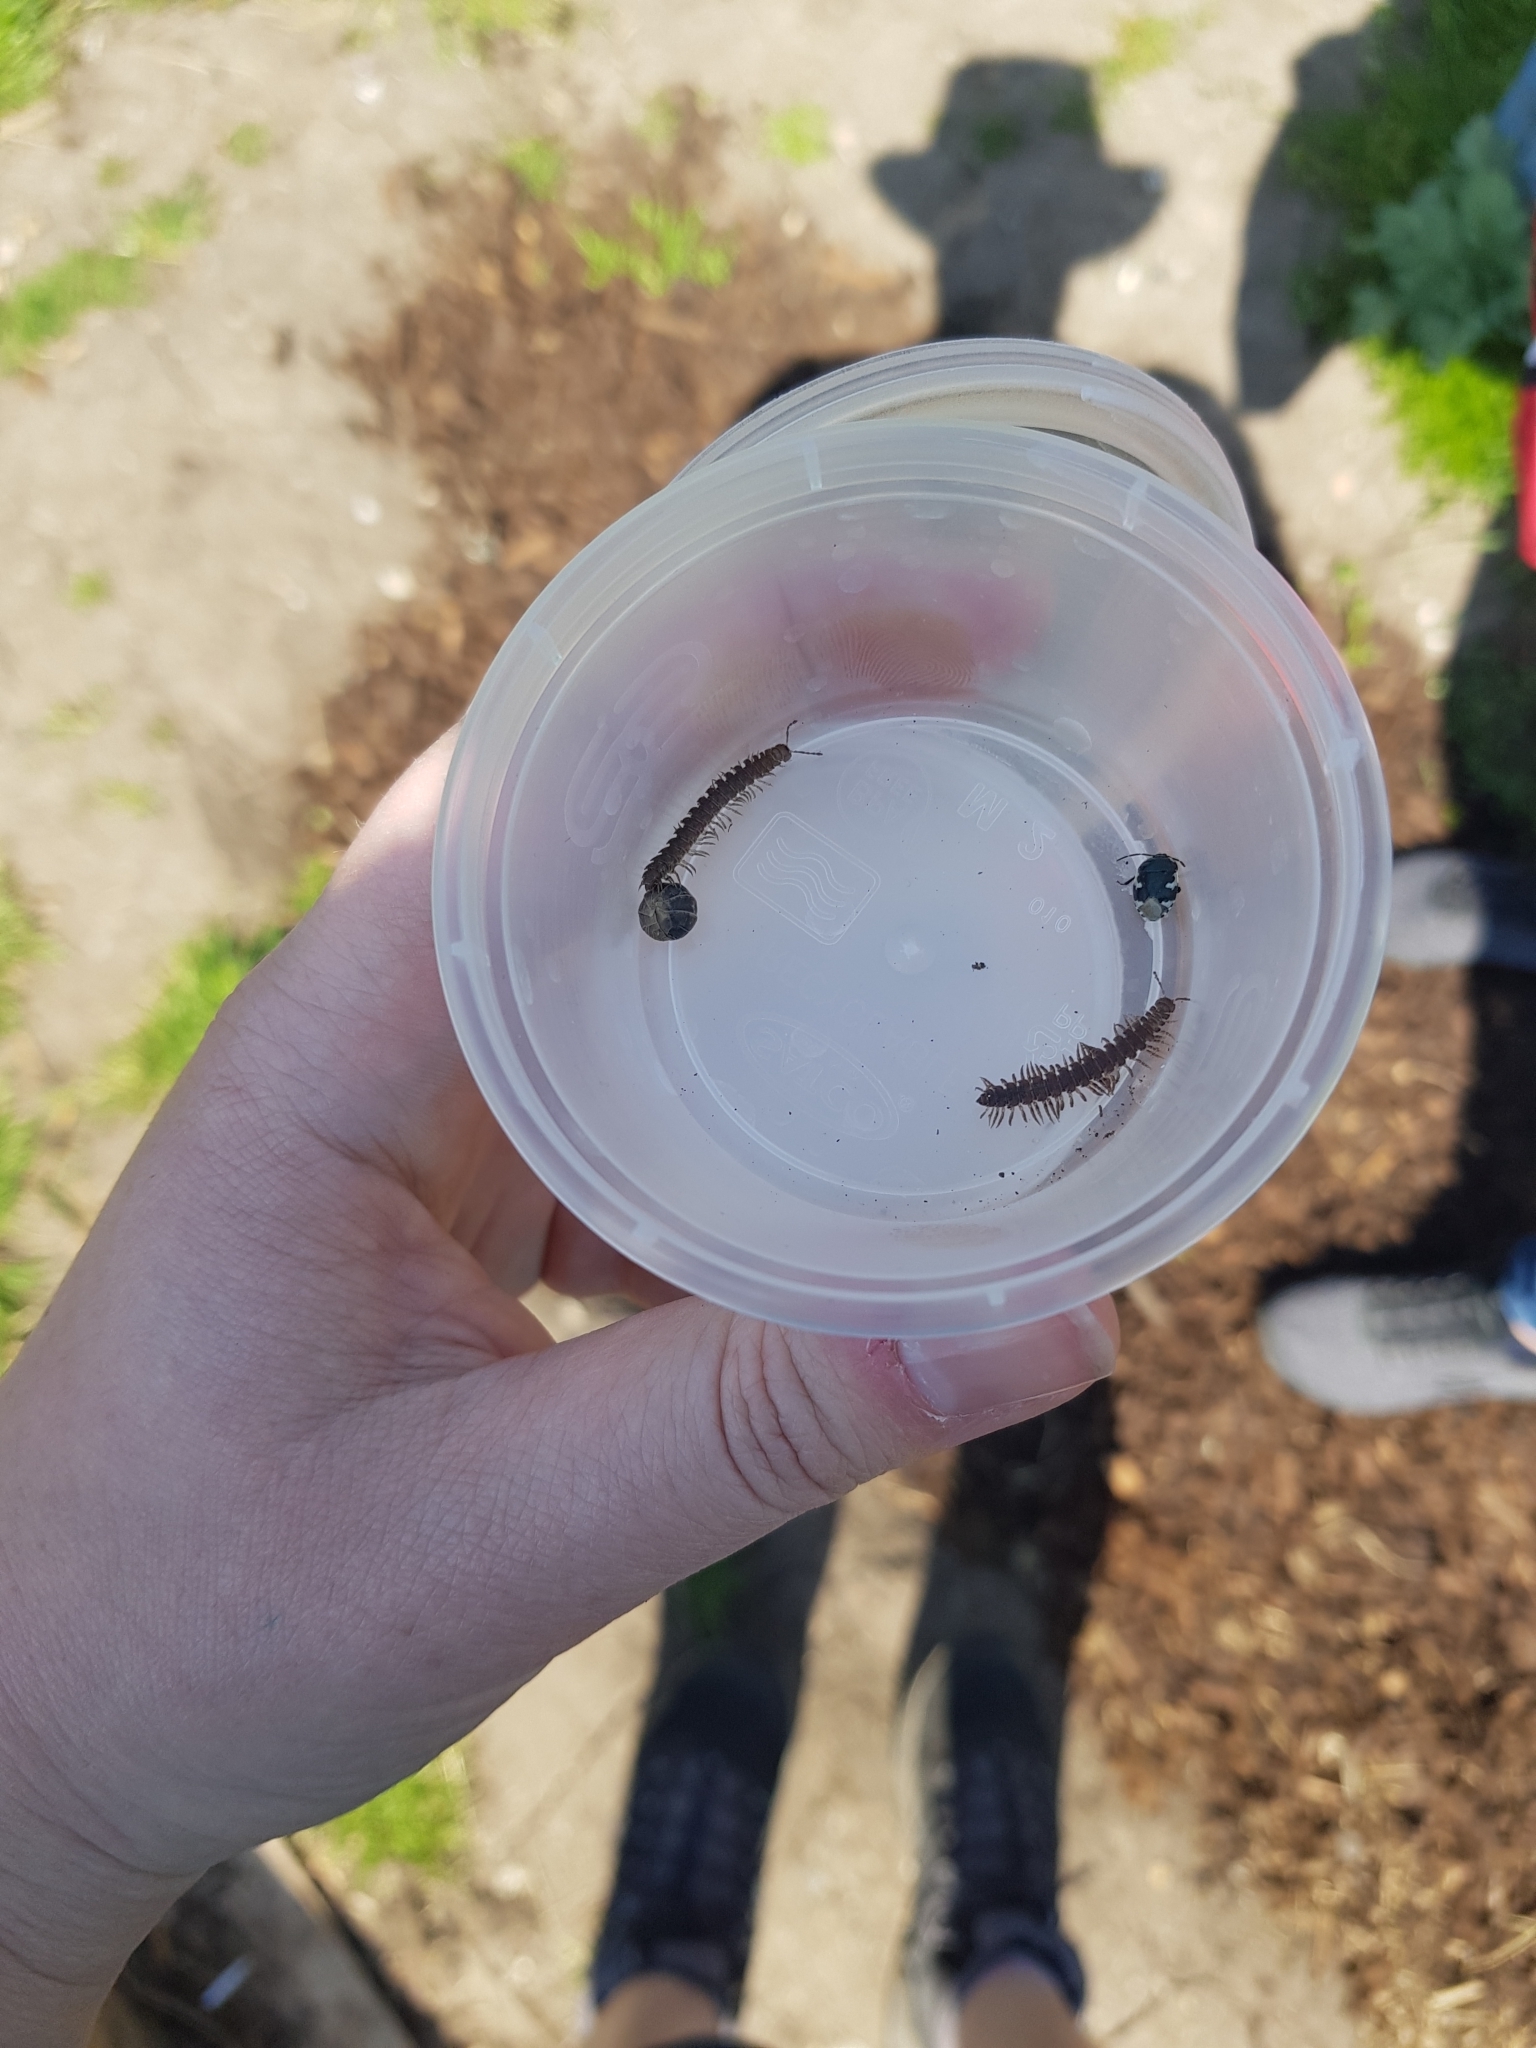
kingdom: Animalia
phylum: Arthropoda
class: Malacostraca
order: Isopoda
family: Armadillidiidae
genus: Armadillidium
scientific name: Armadillidium vulgare
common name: Common pill woodlouse
